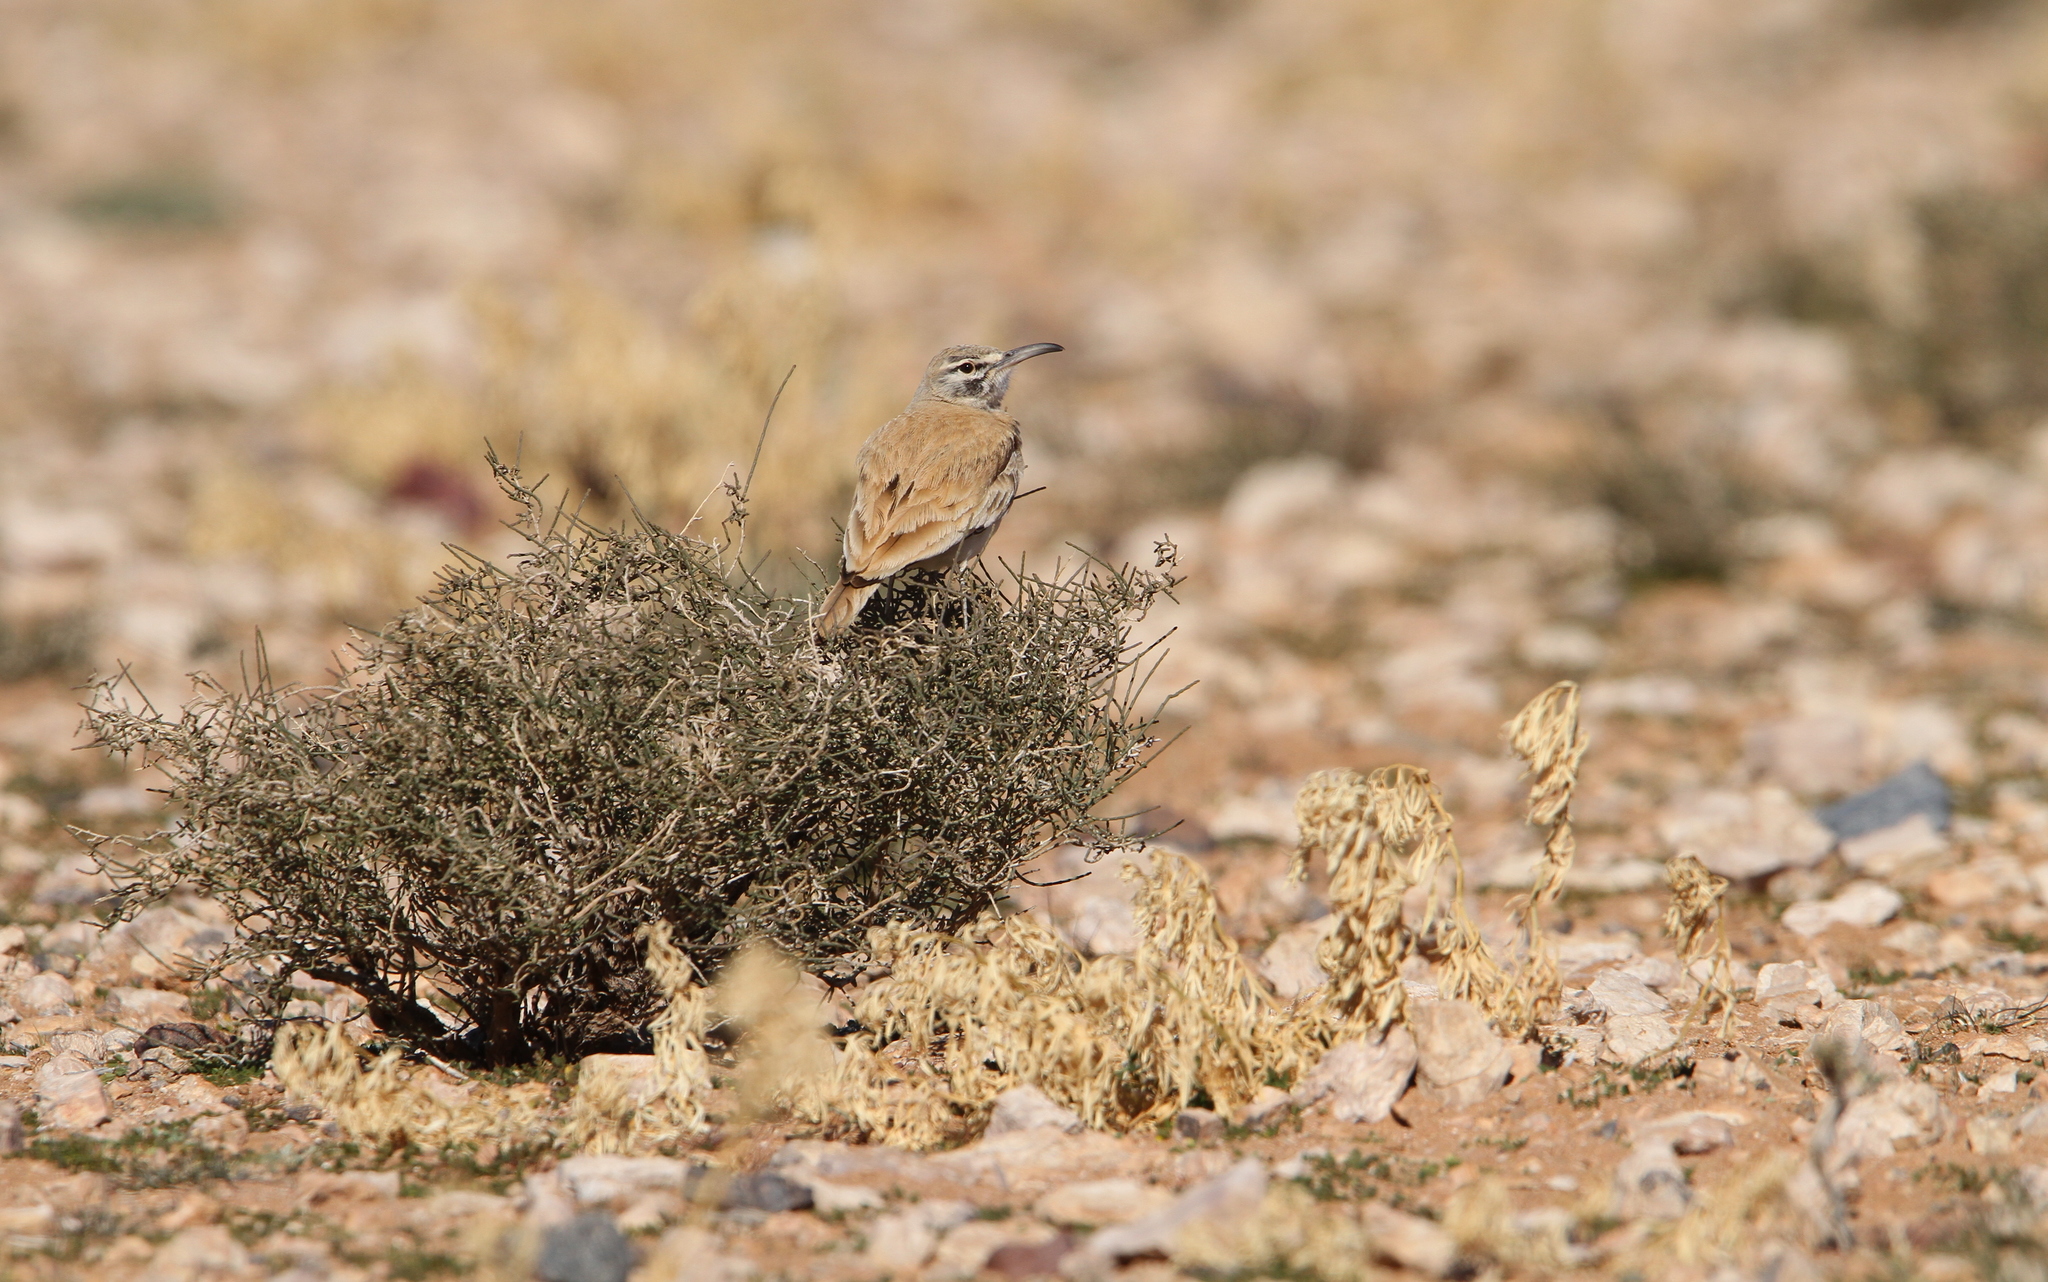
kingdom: Animalia
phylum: Chordata
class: Aves
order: Passeriformes
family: Alaudidae
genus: Alaemon
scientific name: Alaemon alaudipes
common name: Greater hoopoe-lark
